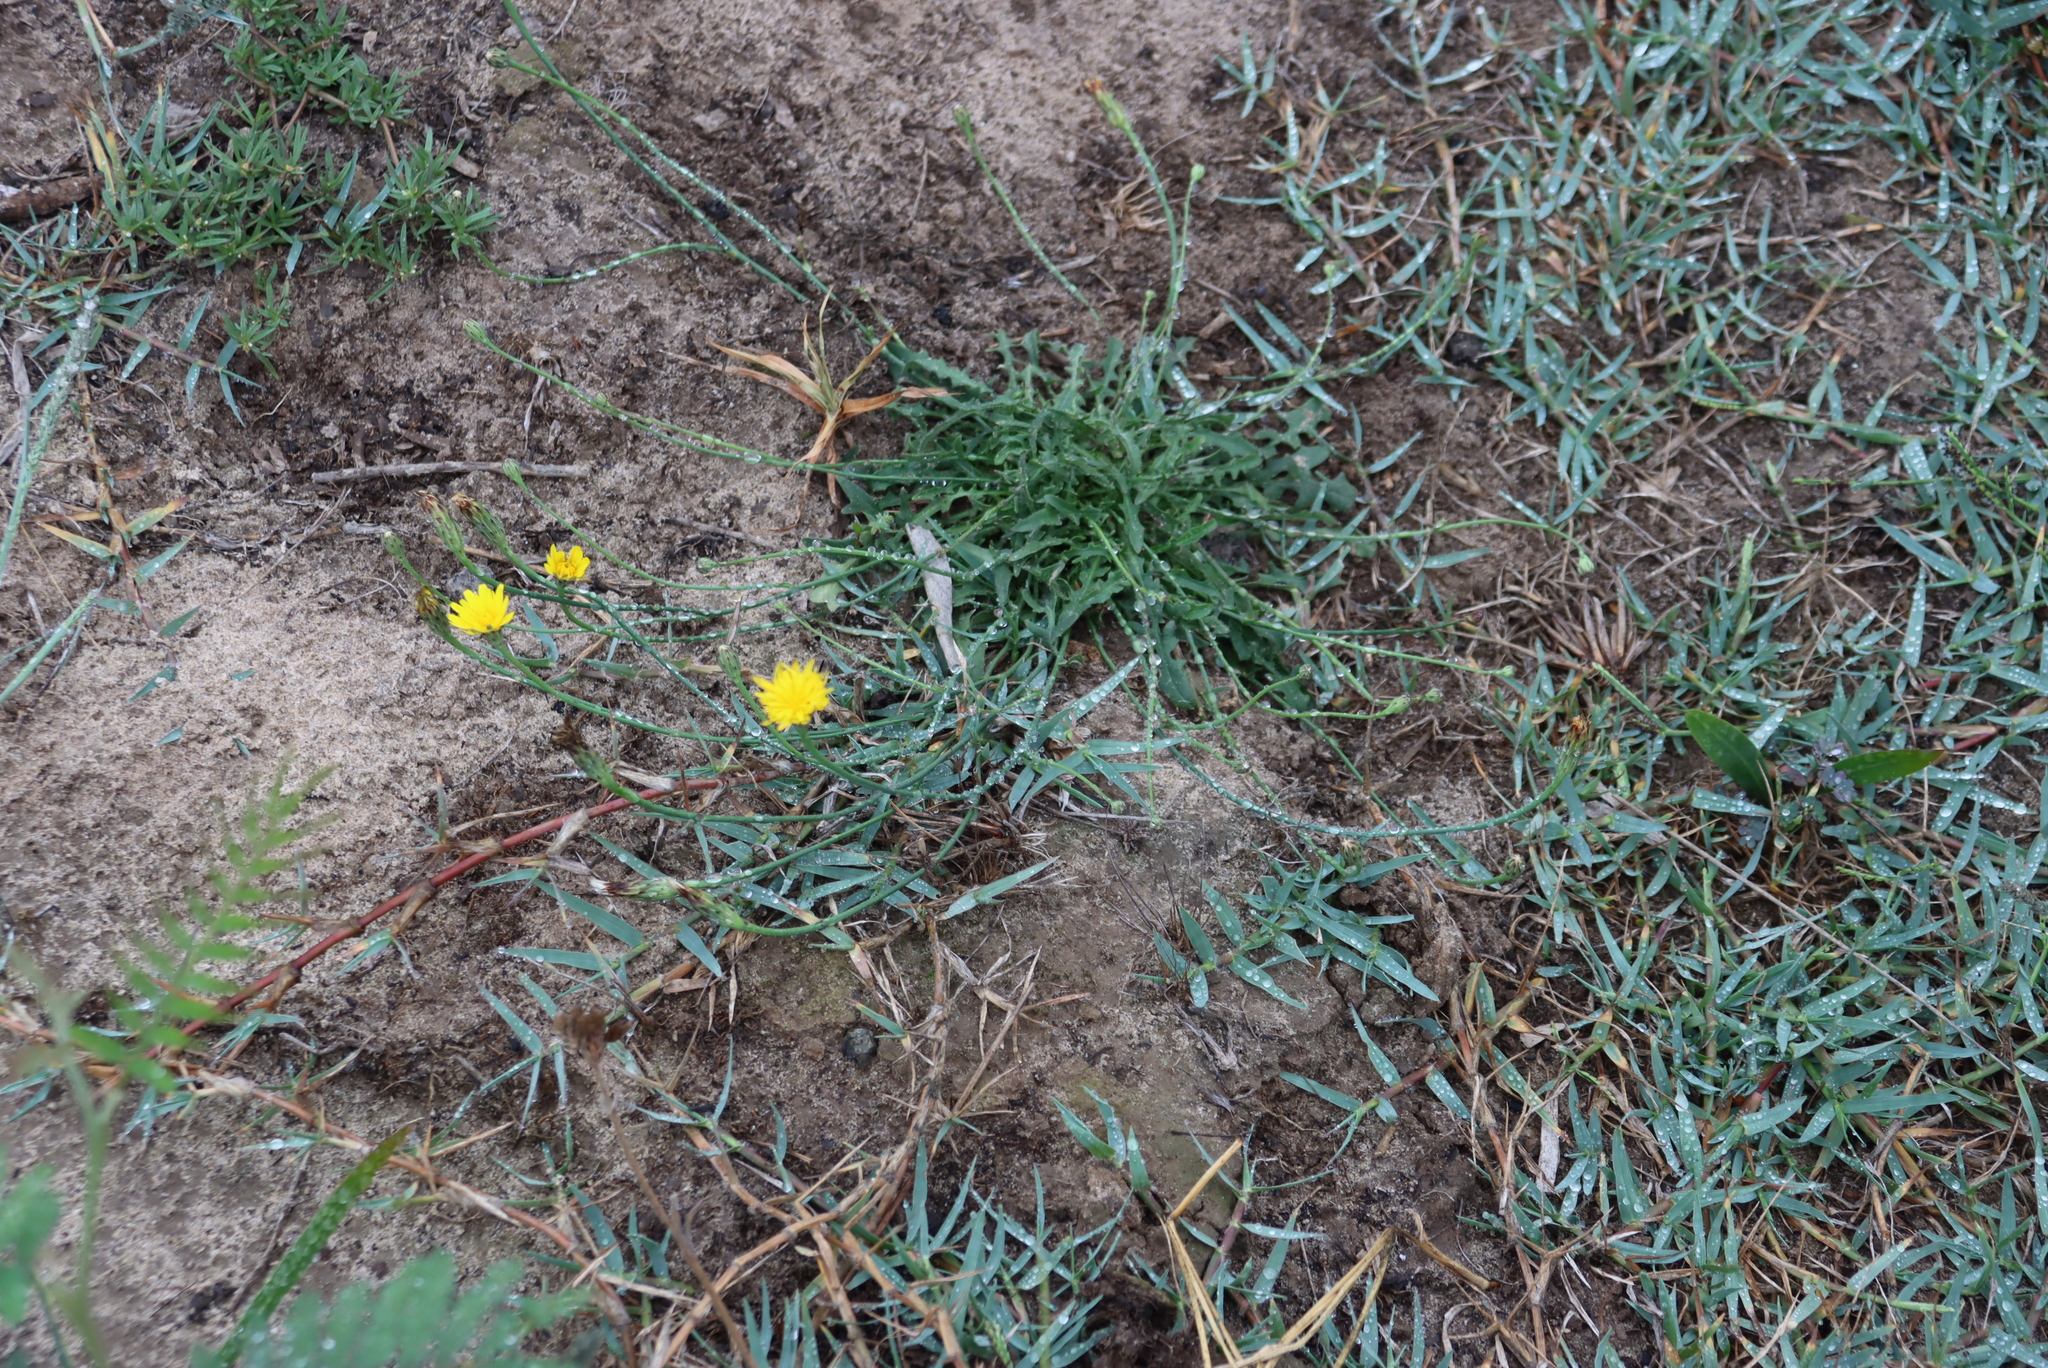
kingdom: Plantae
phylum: Tracheophyta
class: Magnoliopsida
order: Asterales
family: Asteraceae
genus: Hypochaeris
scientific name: Hypochaeris radicata
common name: Flatweed
